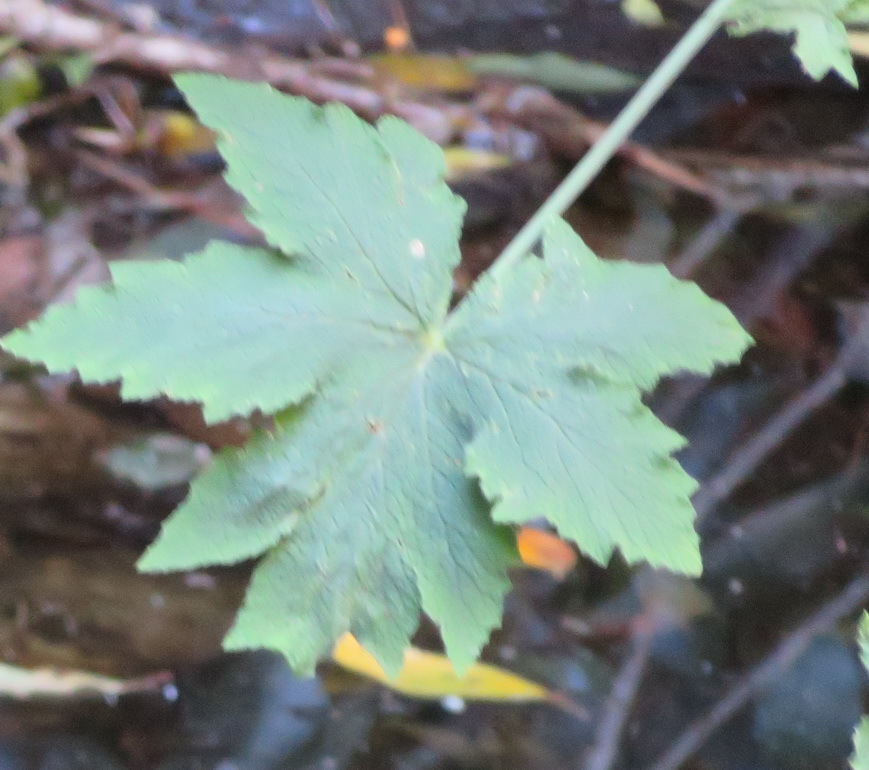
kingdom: Plantae
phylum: Tracheophyta
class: Magnoliopsida
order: Geraniales
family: Geraniaceae
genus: Pelargonium
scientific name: Pelargonium hispidum
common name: Hispid pelargonium
